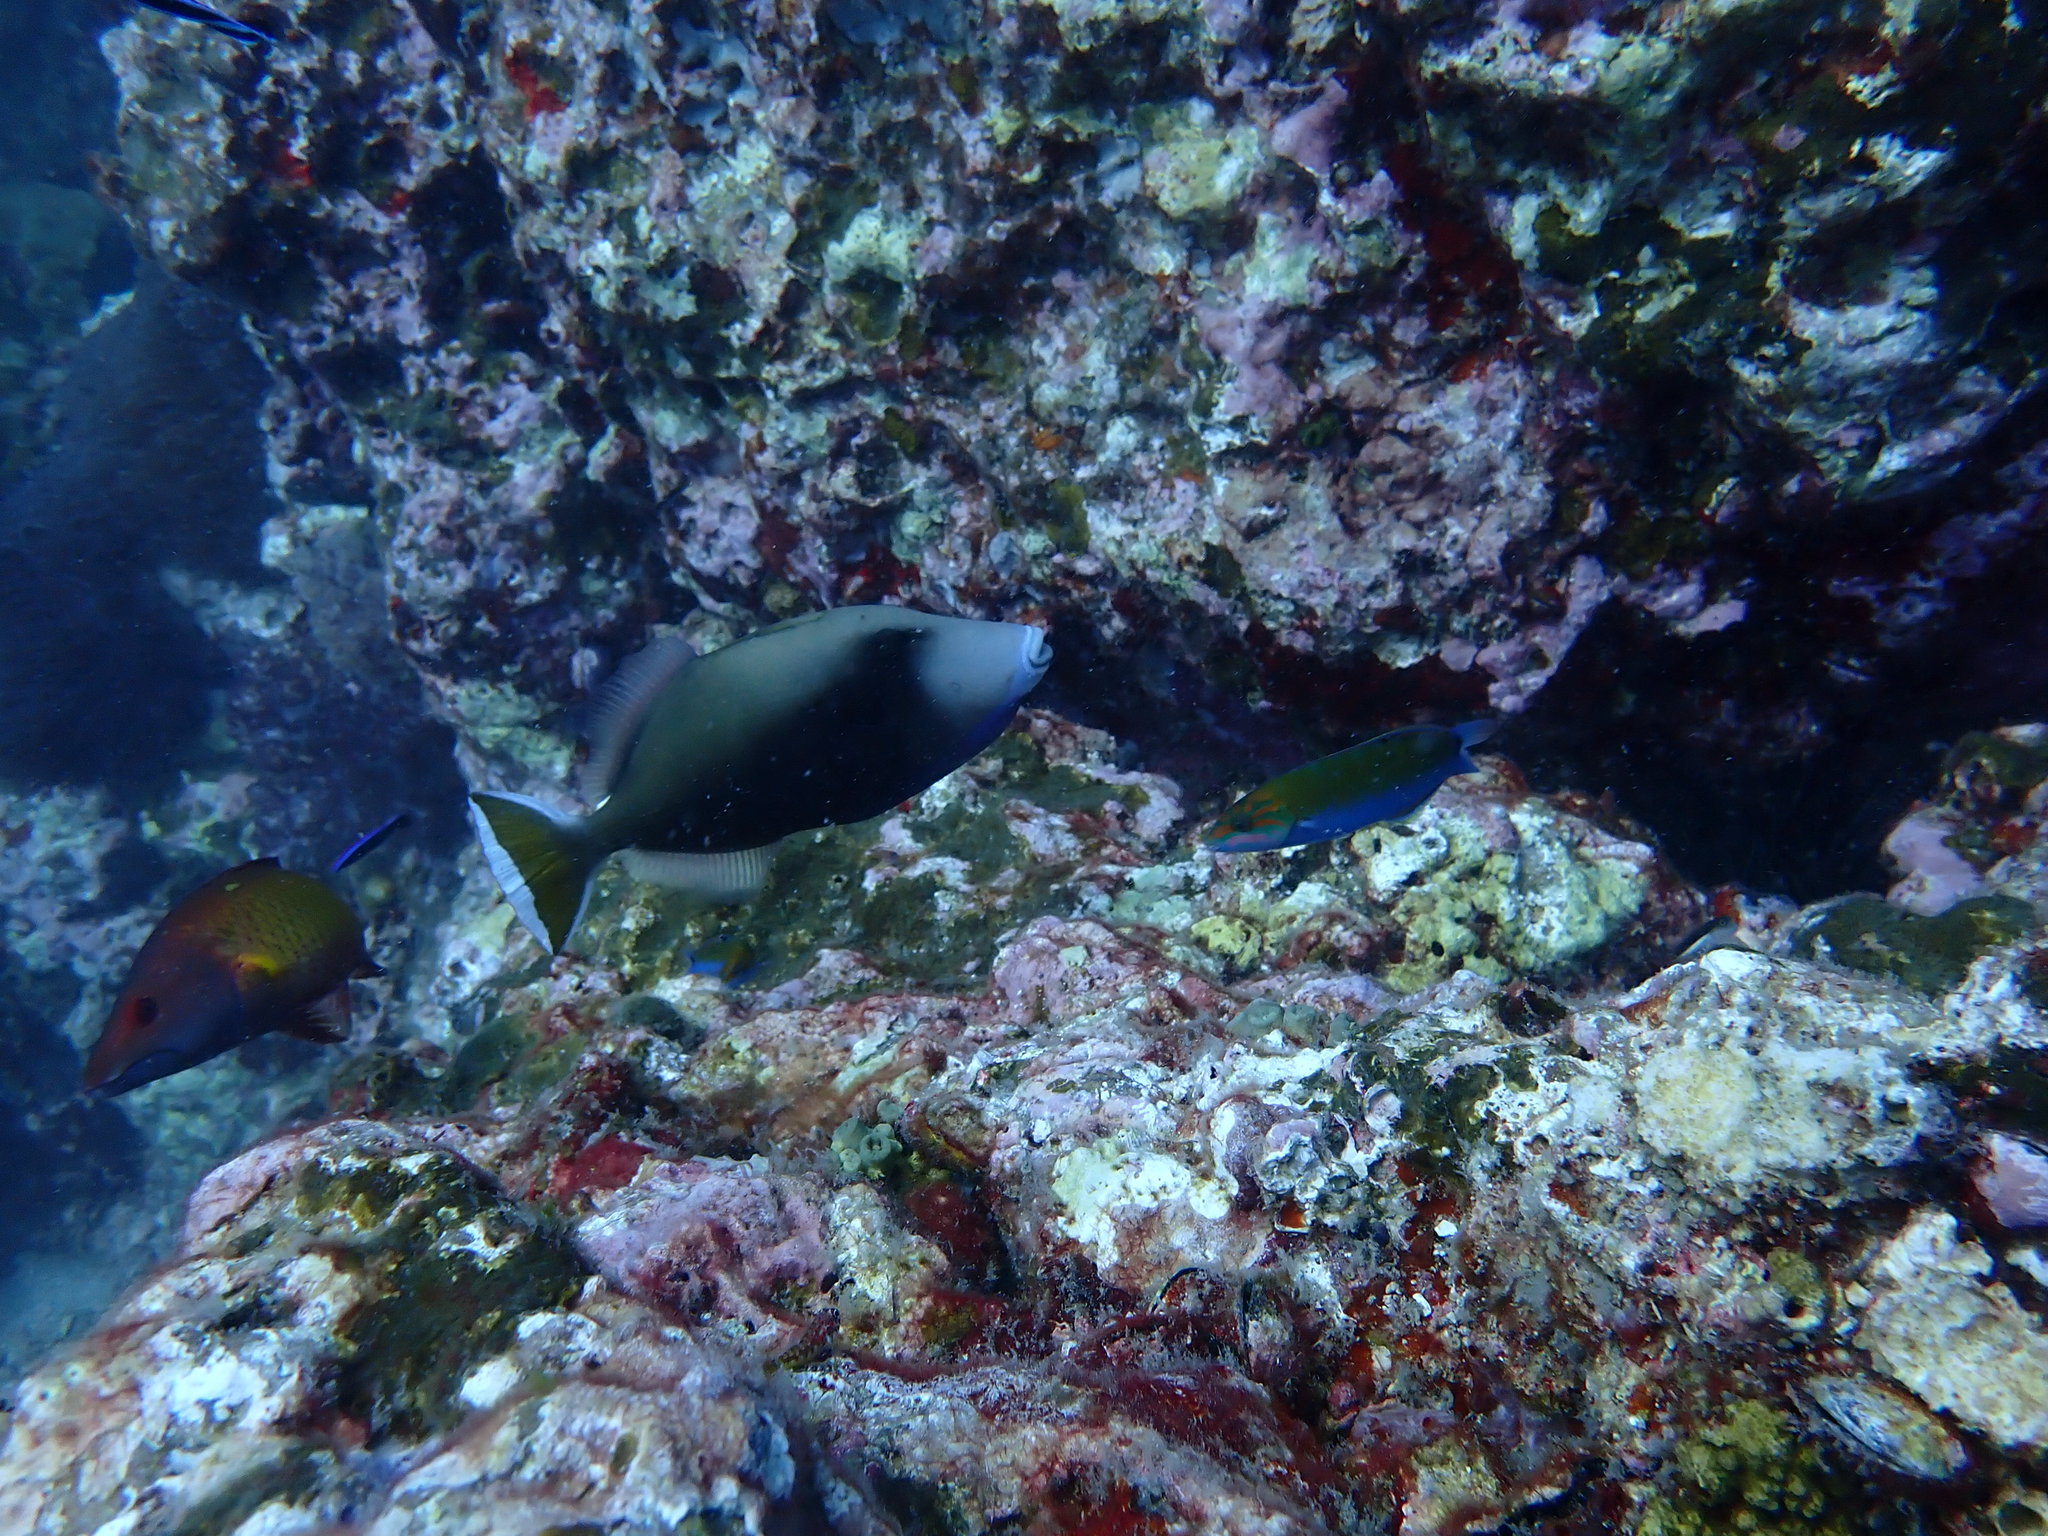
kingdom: Animalia
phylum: Chordata
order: Tetraodontiformes
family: Balistidae
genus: Sufflamen
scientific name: Sufflamen chrysopterum
